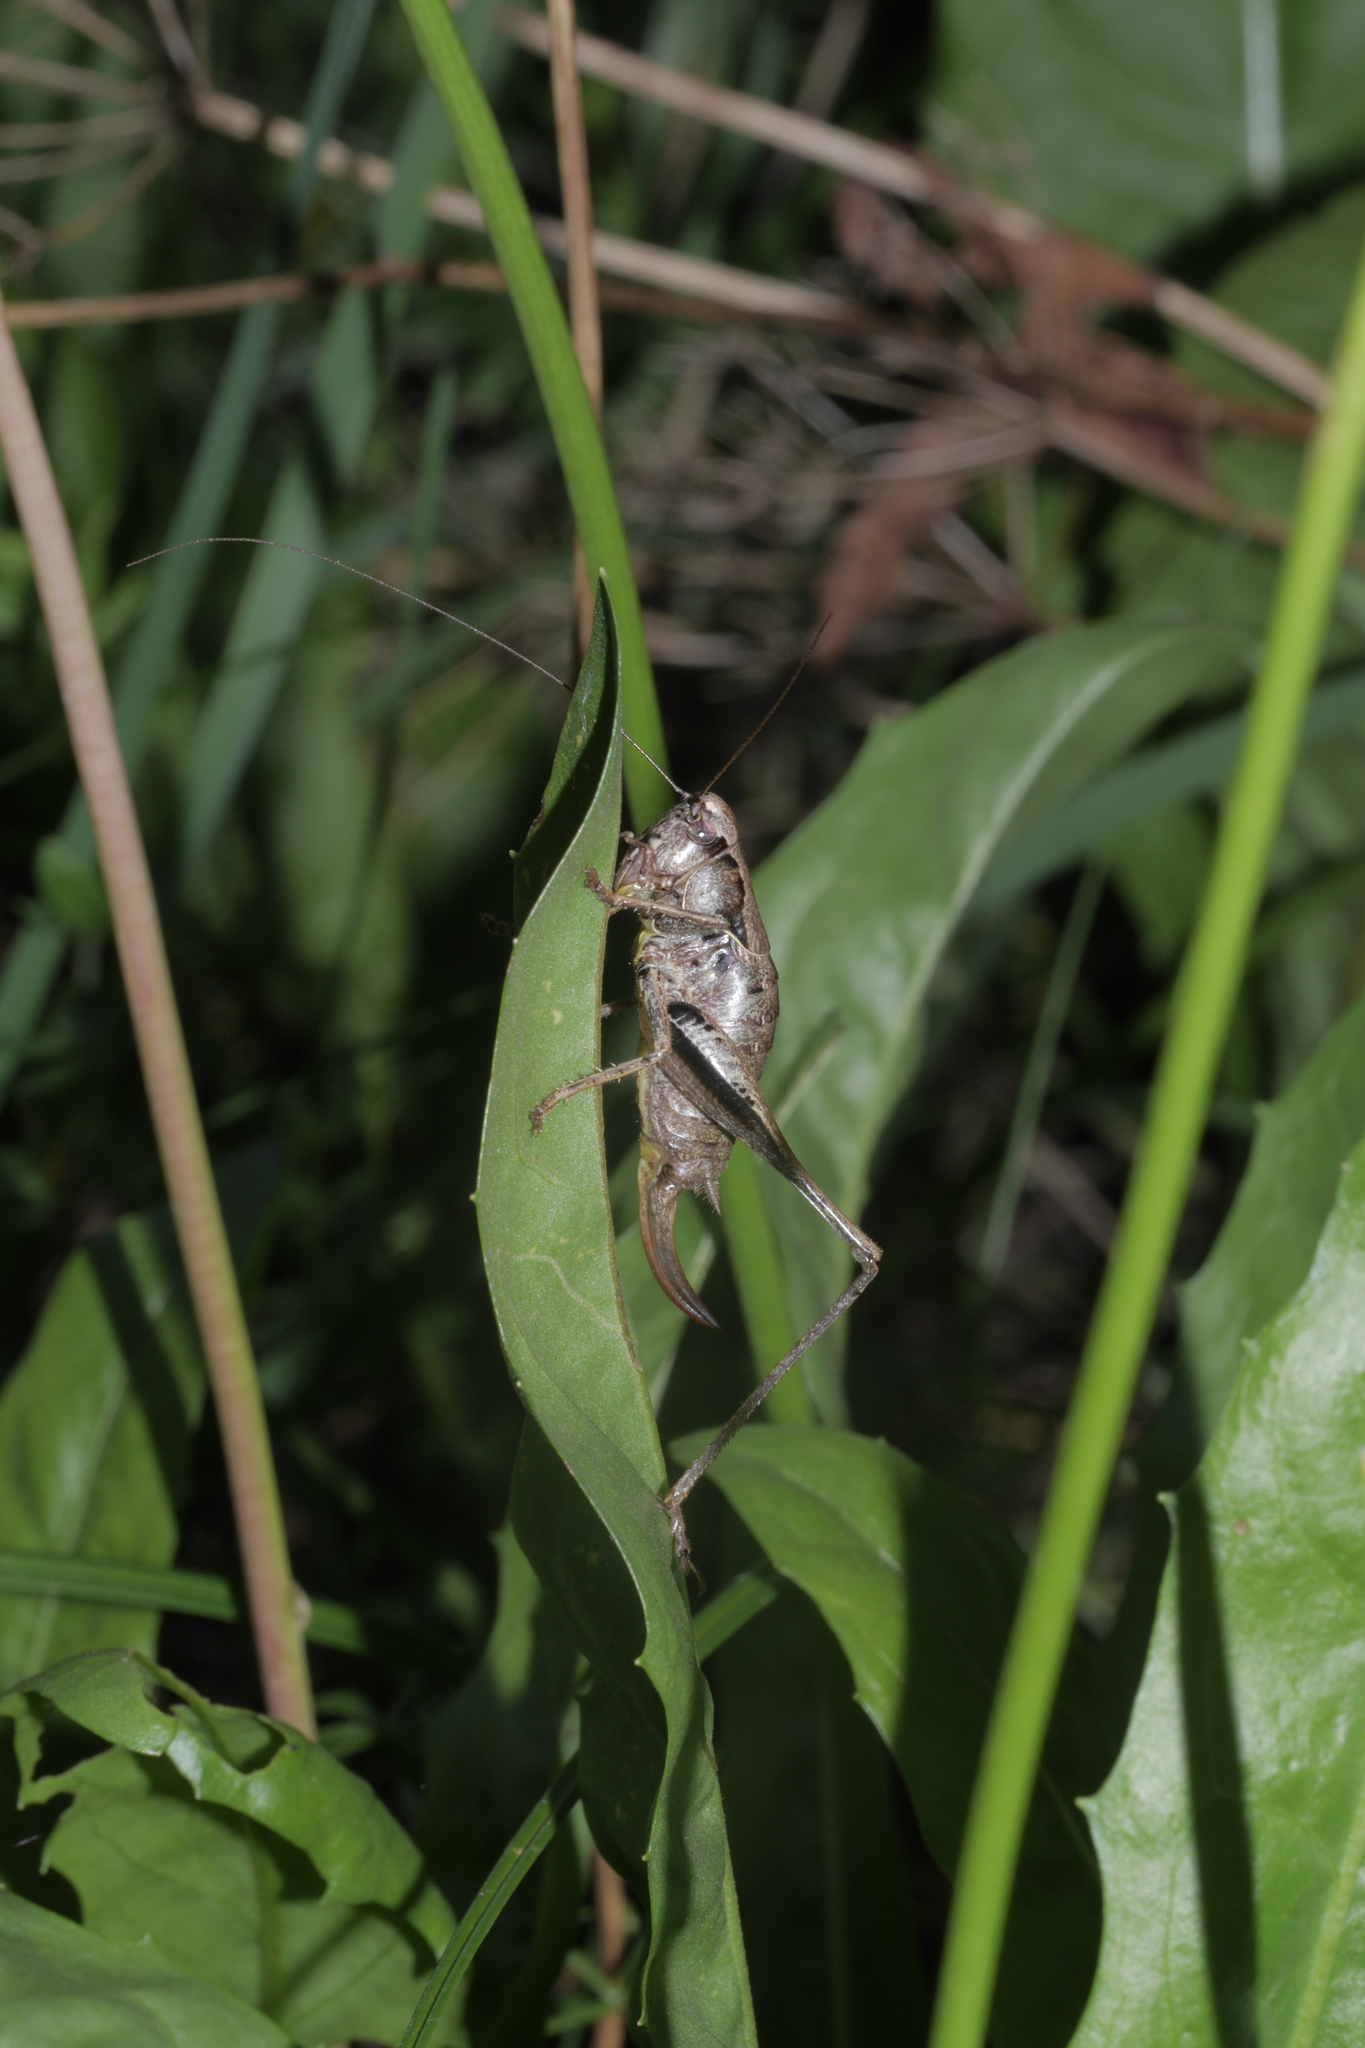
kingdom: Animalia
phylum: Arthropoda
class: Insecta
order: Orthoptera
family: Tettigoniidae
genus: Pholidoptera
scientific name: Pholidoptera griseoaptera
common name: Dark bush-cricket
